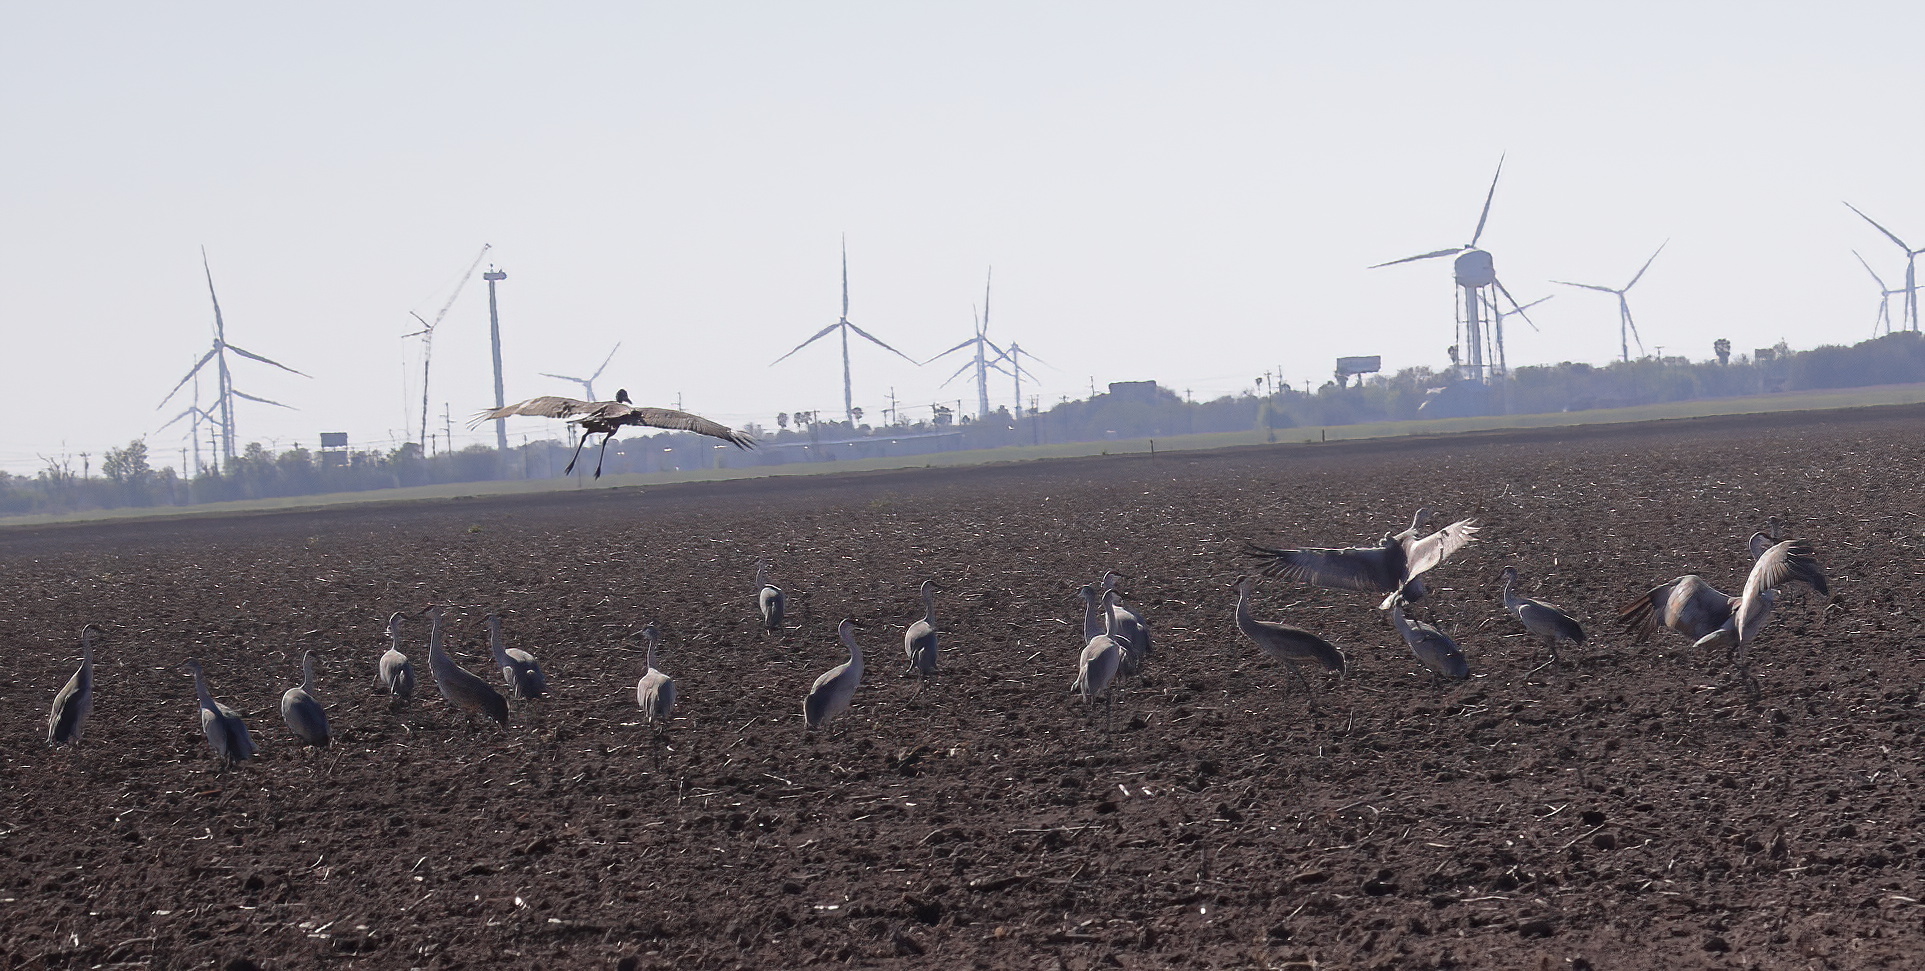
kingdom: Animalia
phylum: Chordata
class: Aves
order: Gruiformes
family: Gruidae
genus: Grus
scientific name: Grus canadensis
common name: Sandhill crane
